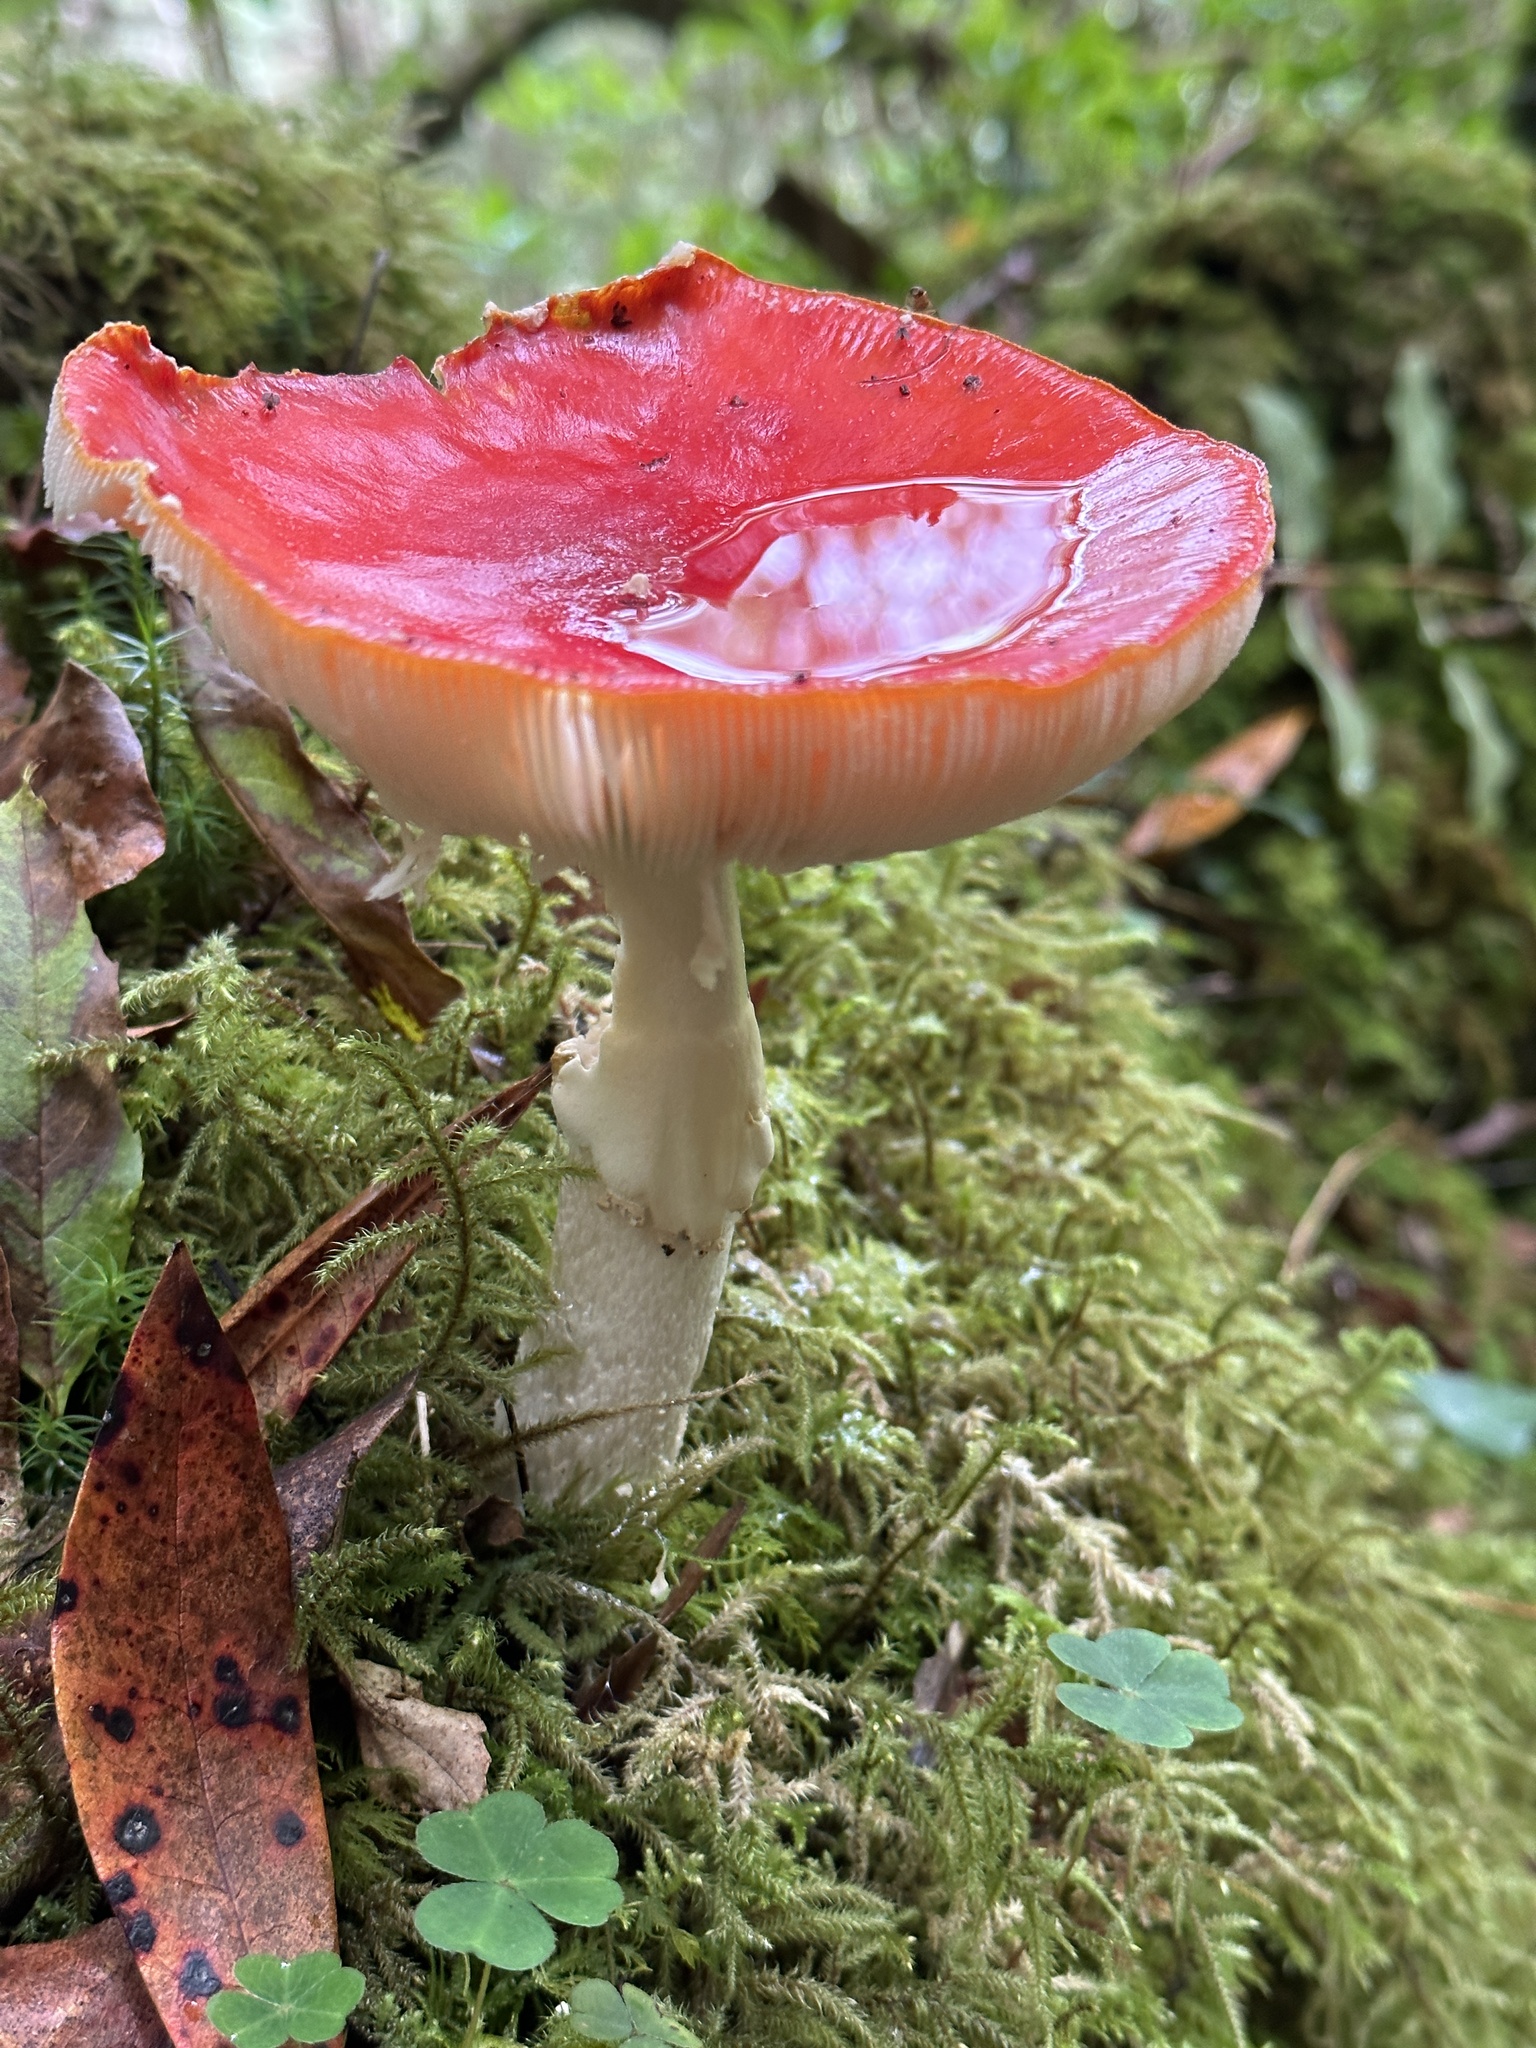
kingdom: Fungi
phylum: Basidiomycota
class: Agaricomycetes
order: Agaricales
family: Amanitaceae
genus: Amanita
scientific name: Amanita muscaria
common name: Fly agaric
